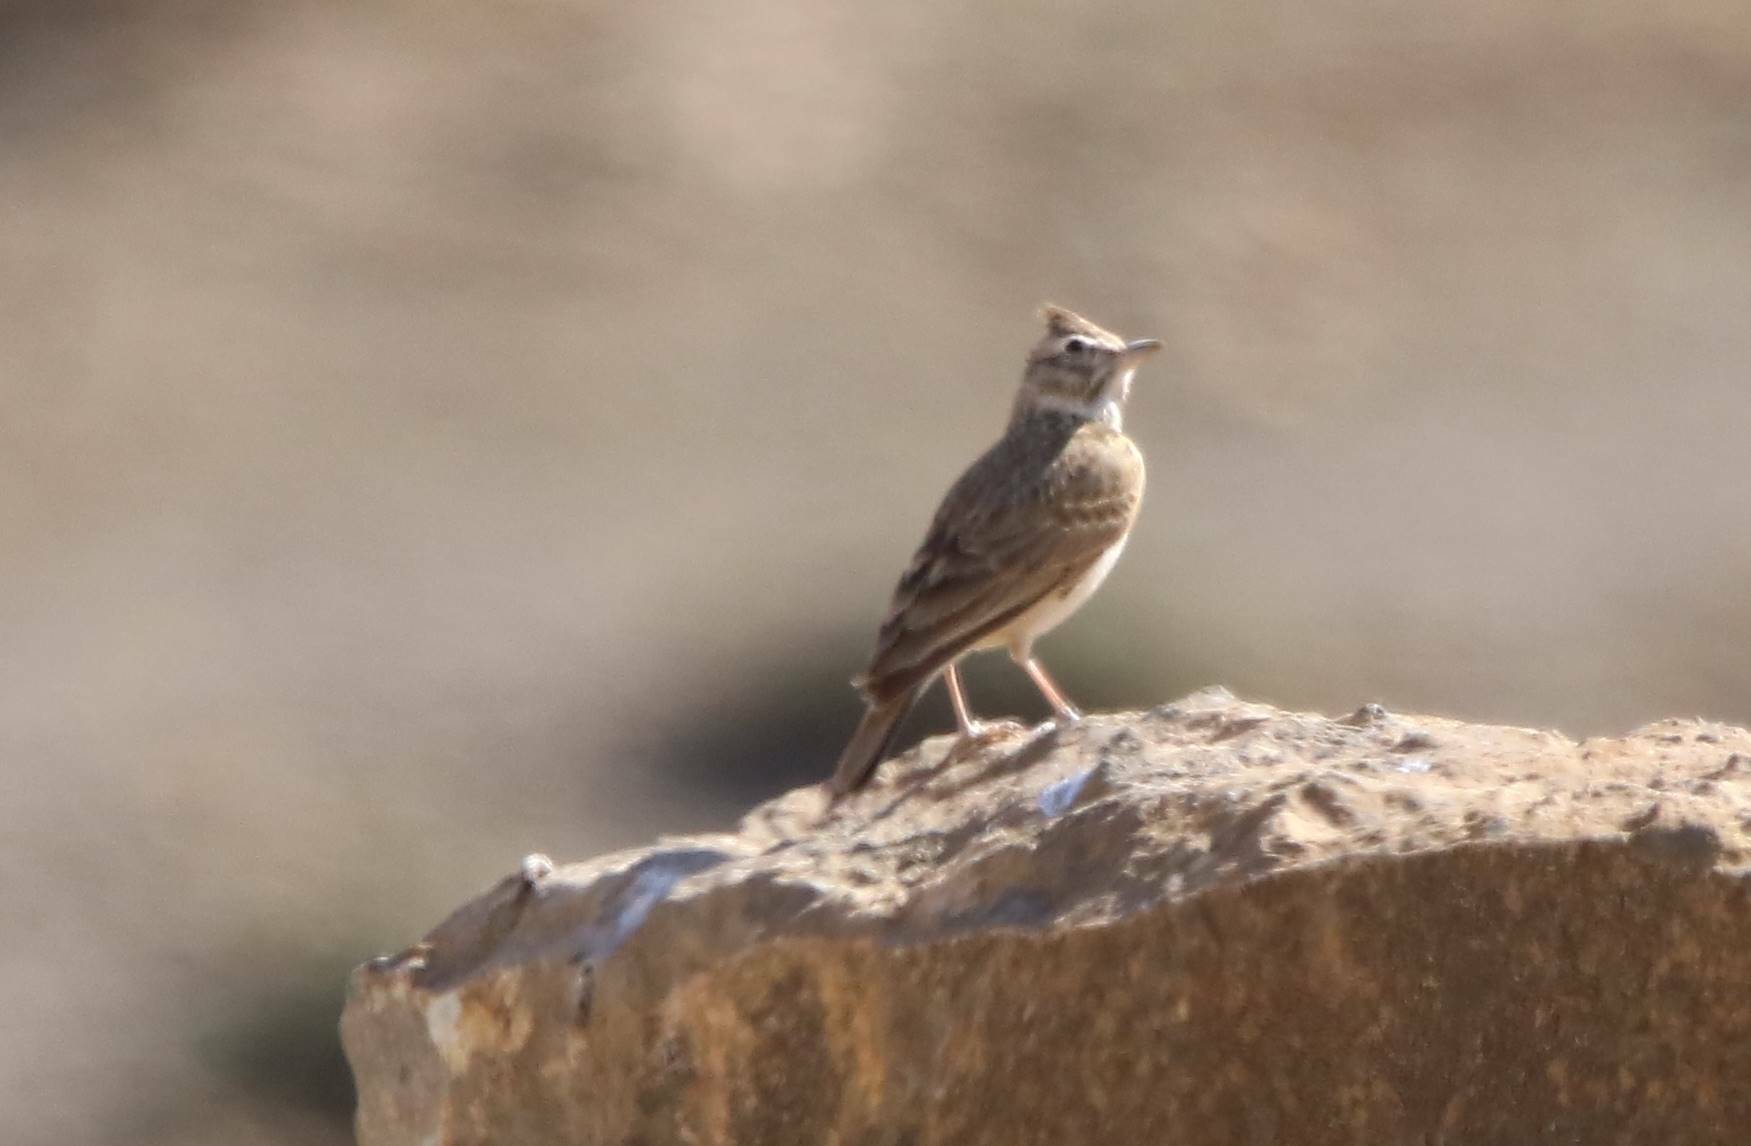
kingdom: Animalia
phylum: Chordata
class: Aves
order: Passeriformes
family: Alaudidae
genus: Galerida
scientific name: Galerida theklae
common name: Thekla lark
